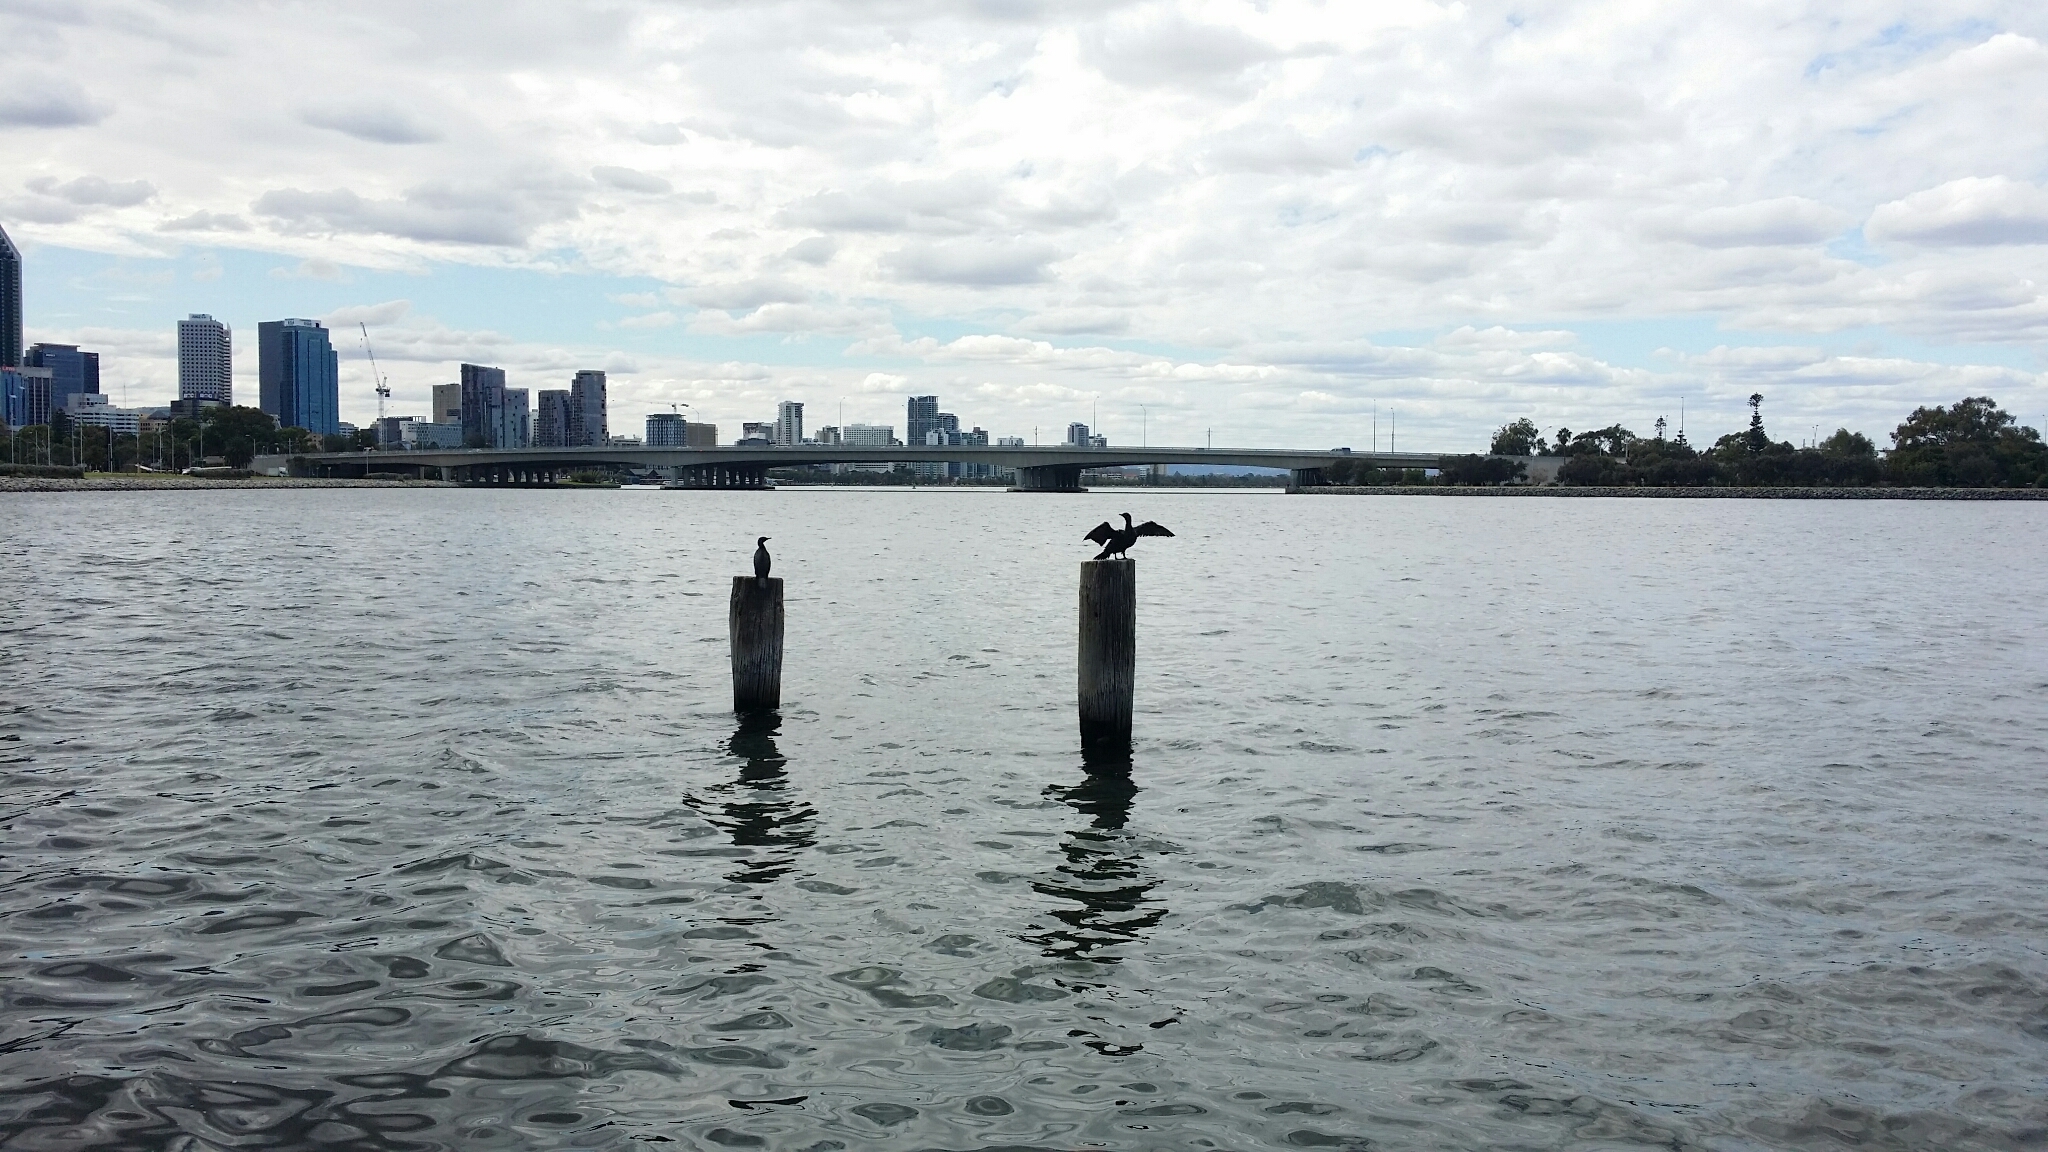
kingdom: Animalia
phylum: Chordata
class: Aves
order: Suliformes
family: Phalacrocoracidae
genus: Phalacrocorax
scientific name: Phalacrocorax sulcirostris
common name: Little black cormorant
